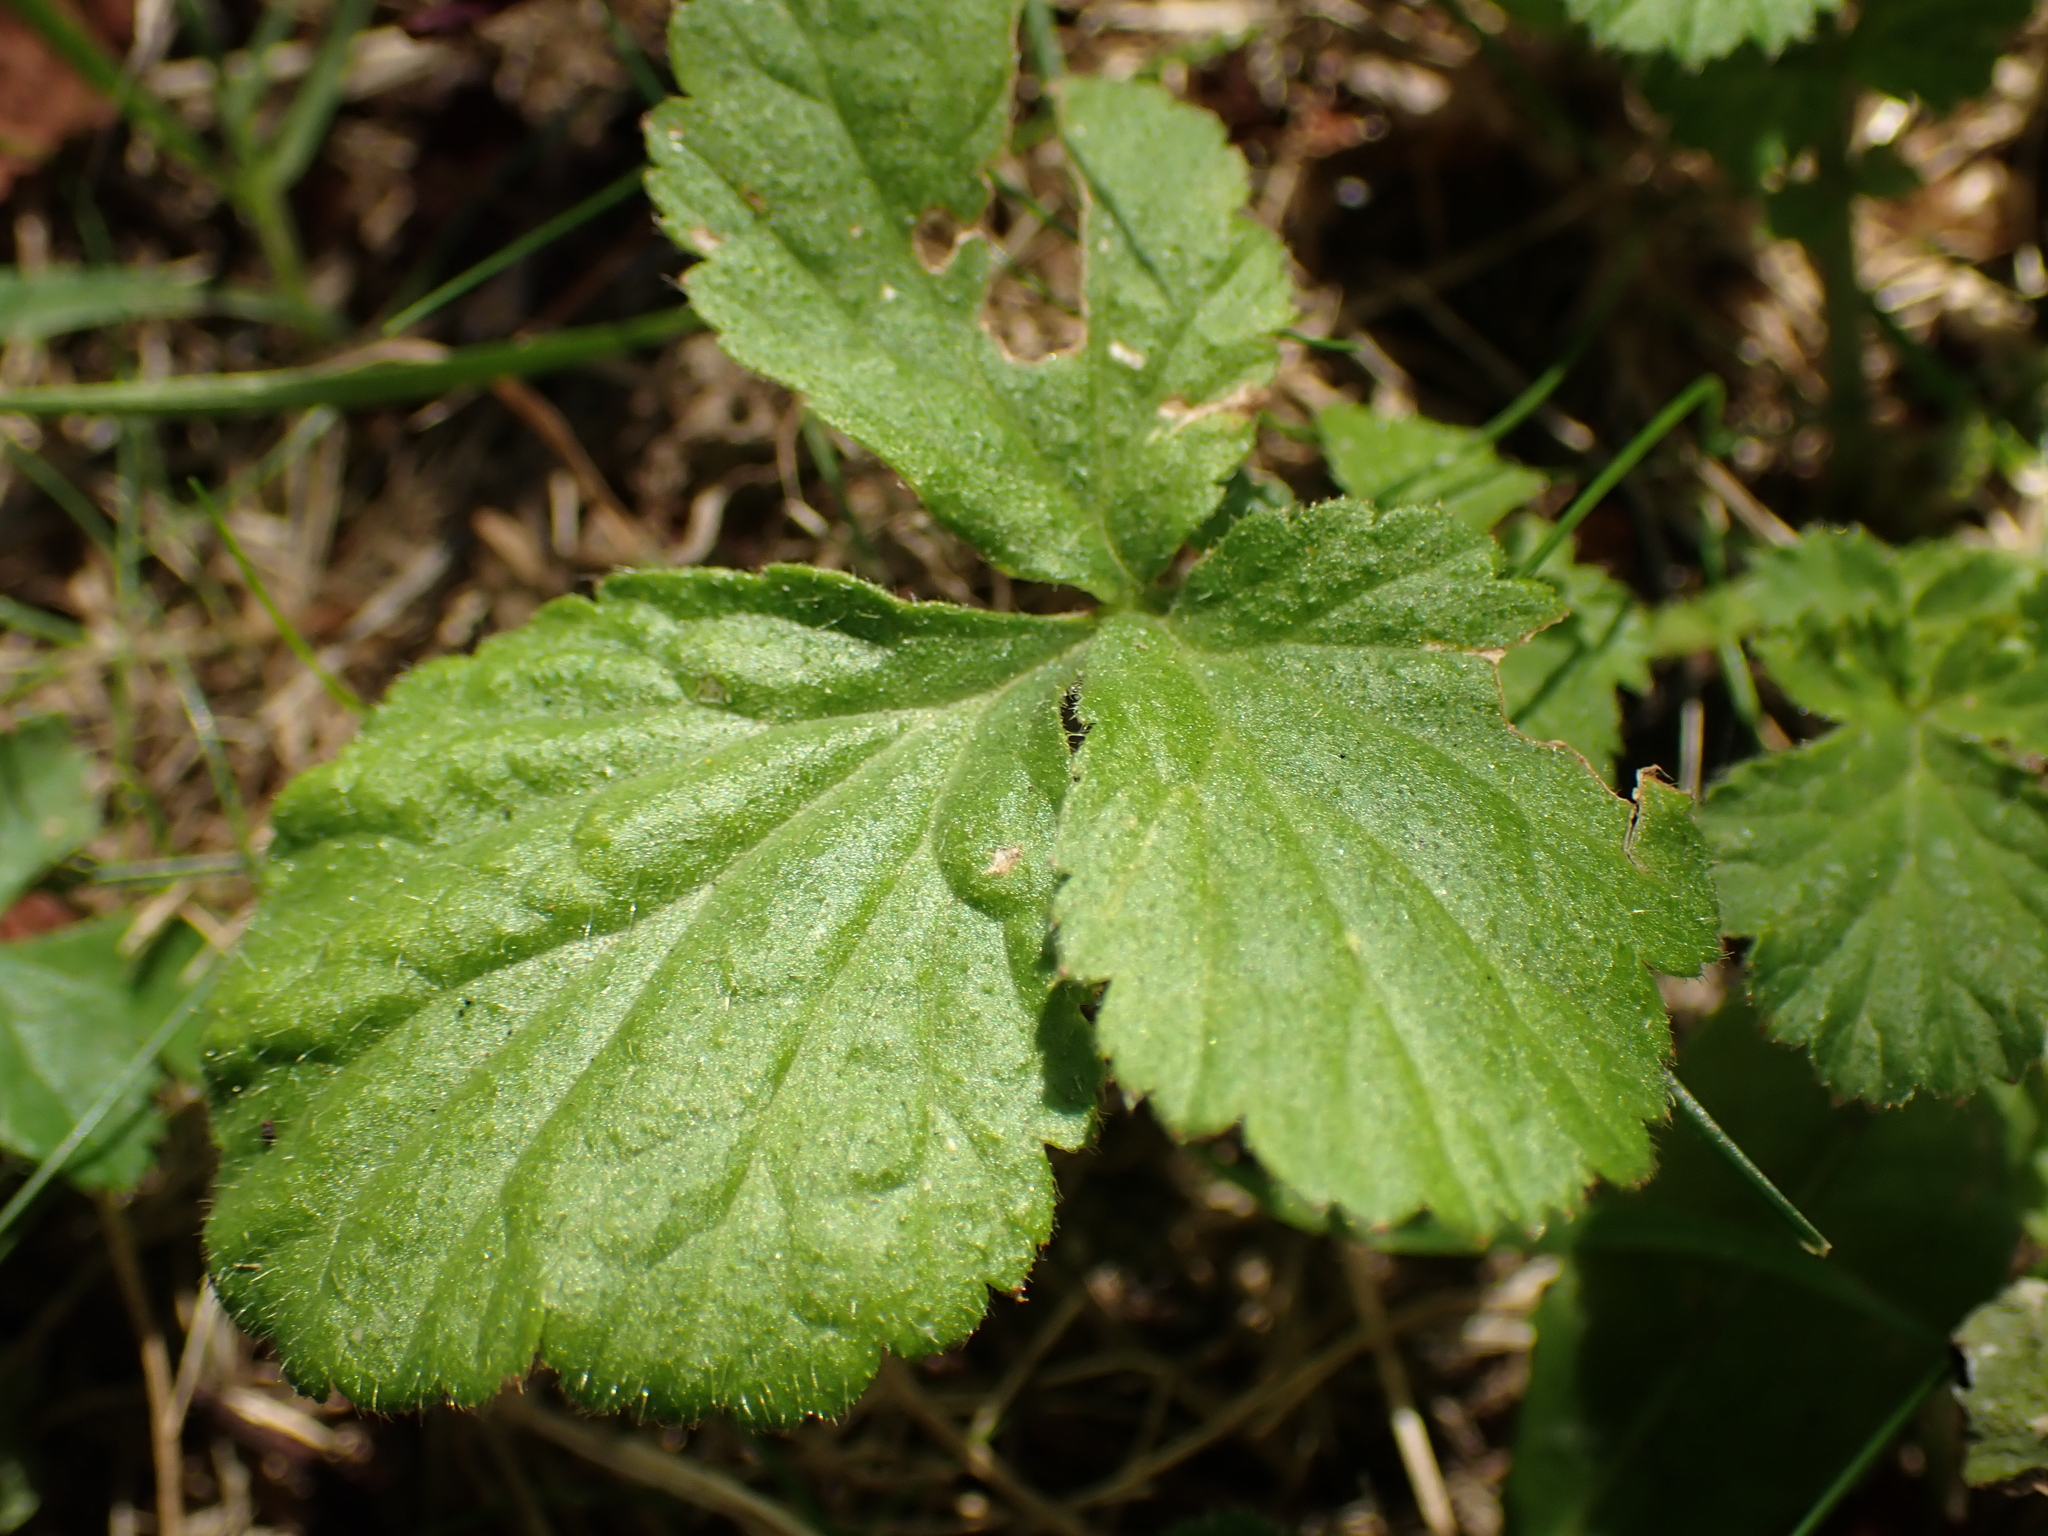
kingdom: Plantae
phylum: Tracheophyta
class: Magnoliopsida
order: Rosales
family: Rosaceae
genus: Geum
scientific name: Geum urbanum
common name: Wood avens
